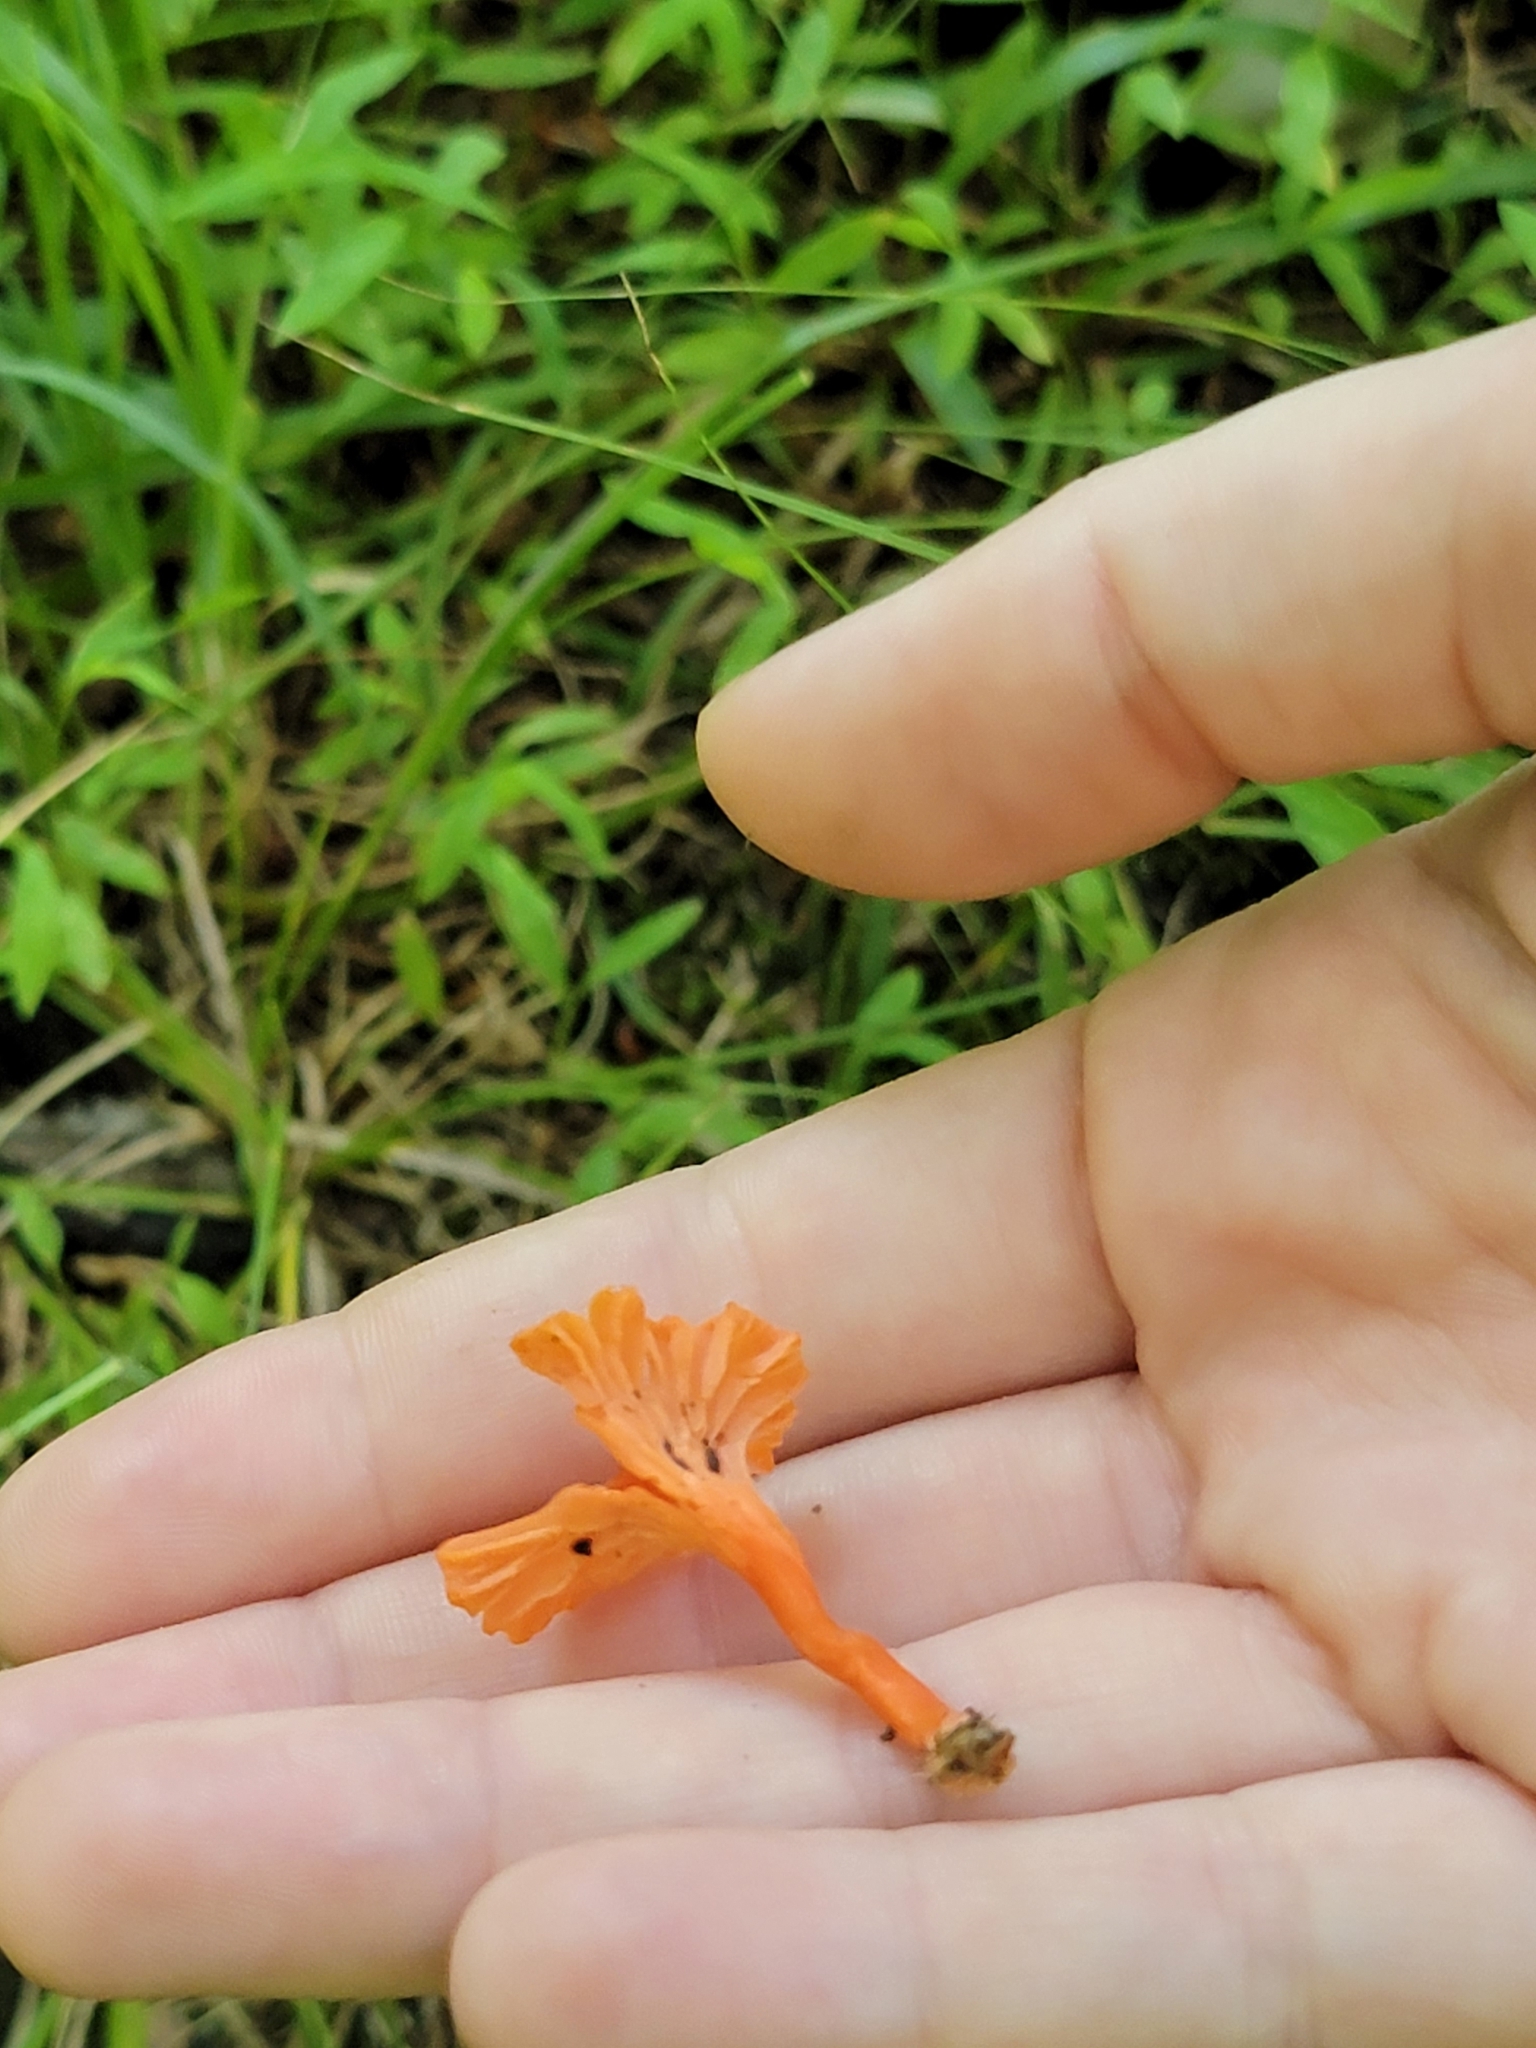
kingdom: Fungi
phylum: Basidiomycota
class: Agaricomycetes
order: Cantharellales
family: Hydnaceae
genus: Cantharellus
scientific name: Cantharellus cinnabarinus
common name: Cinnabar chanterelle
